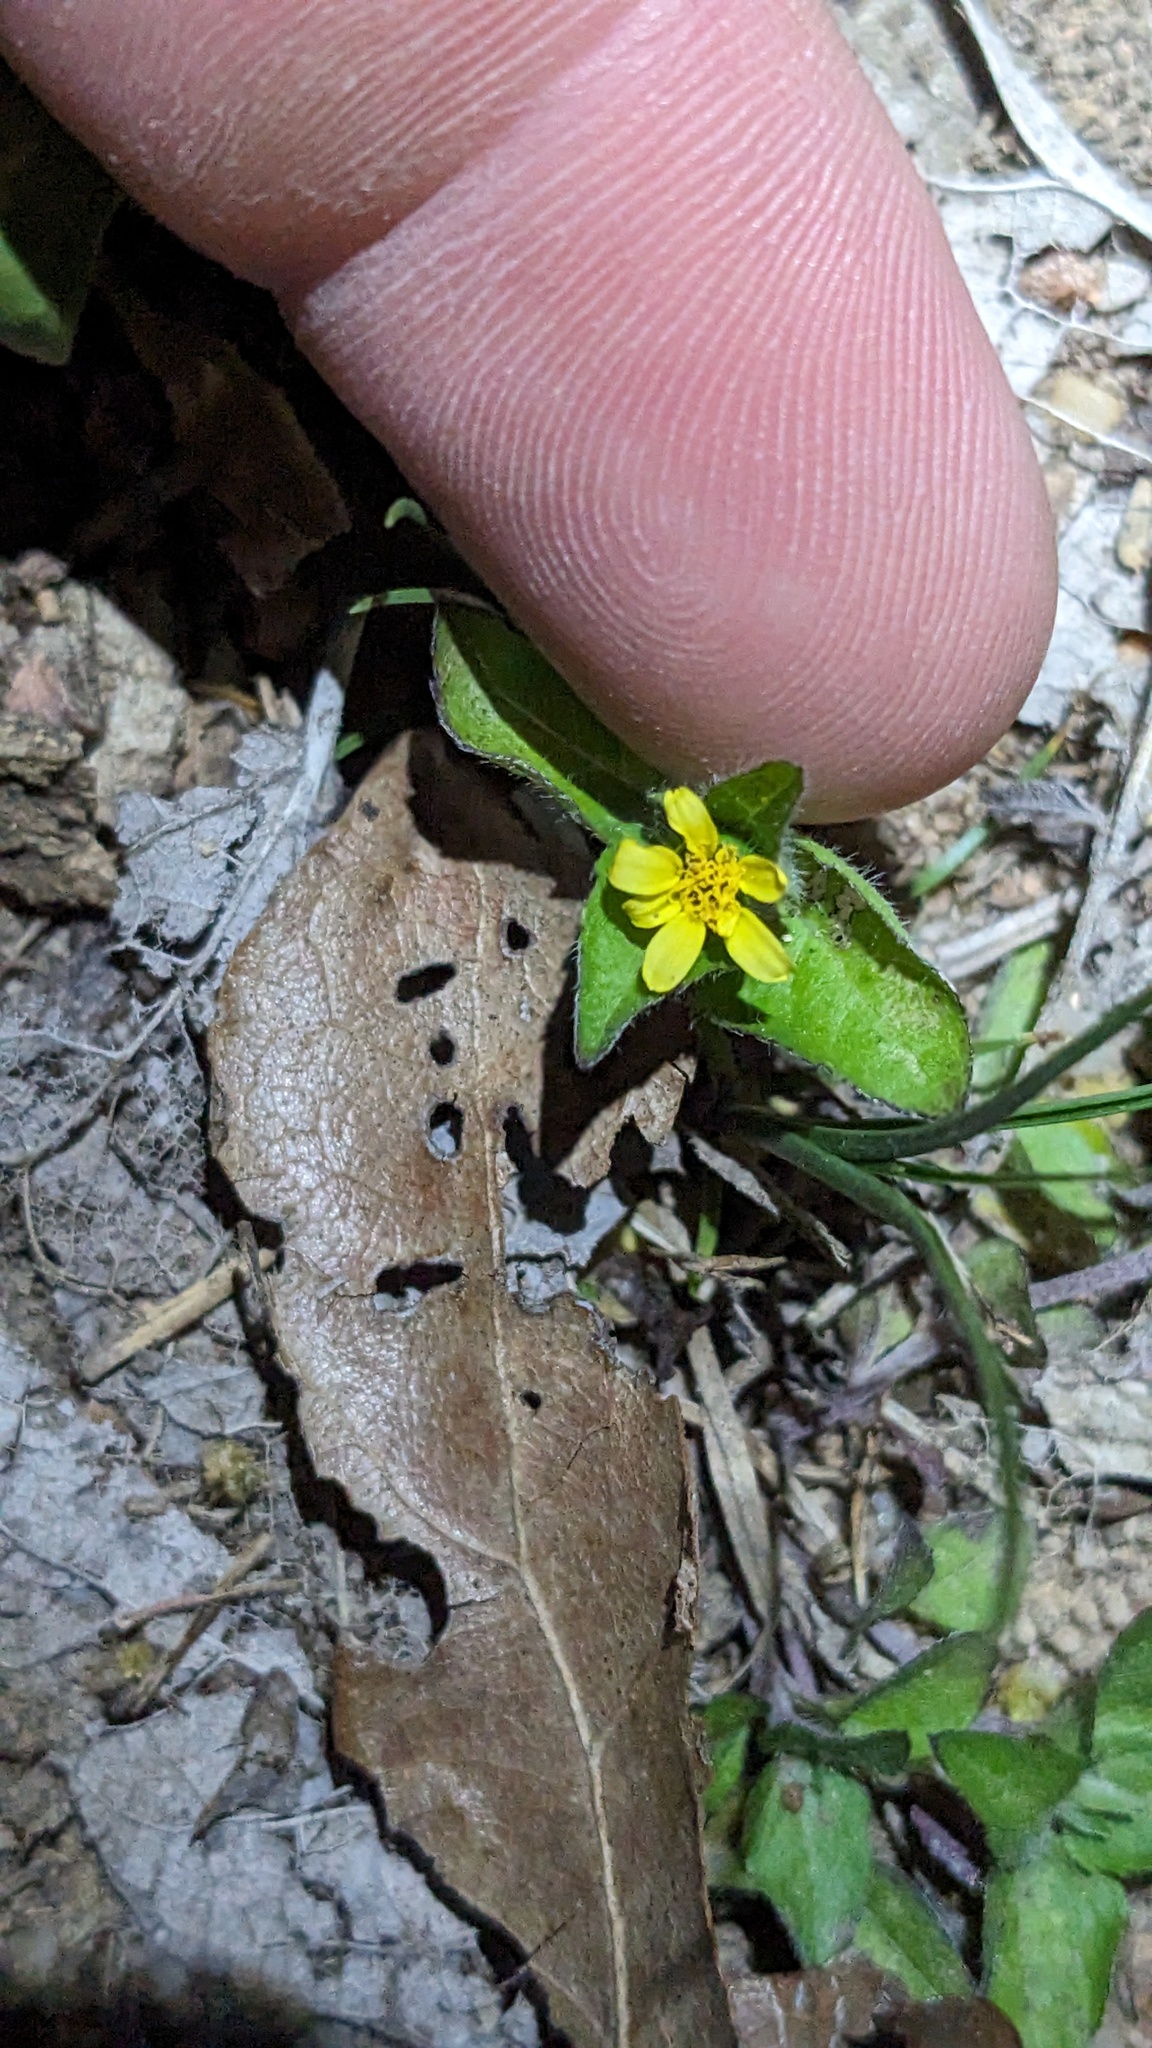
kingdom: Plantae
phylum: Tracheophyta
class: Magnoliopsida
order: Asterales
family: Asteraceae
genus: Calyptocarpus
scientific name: Calyptocarpus vialis
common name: Straggler daisy
